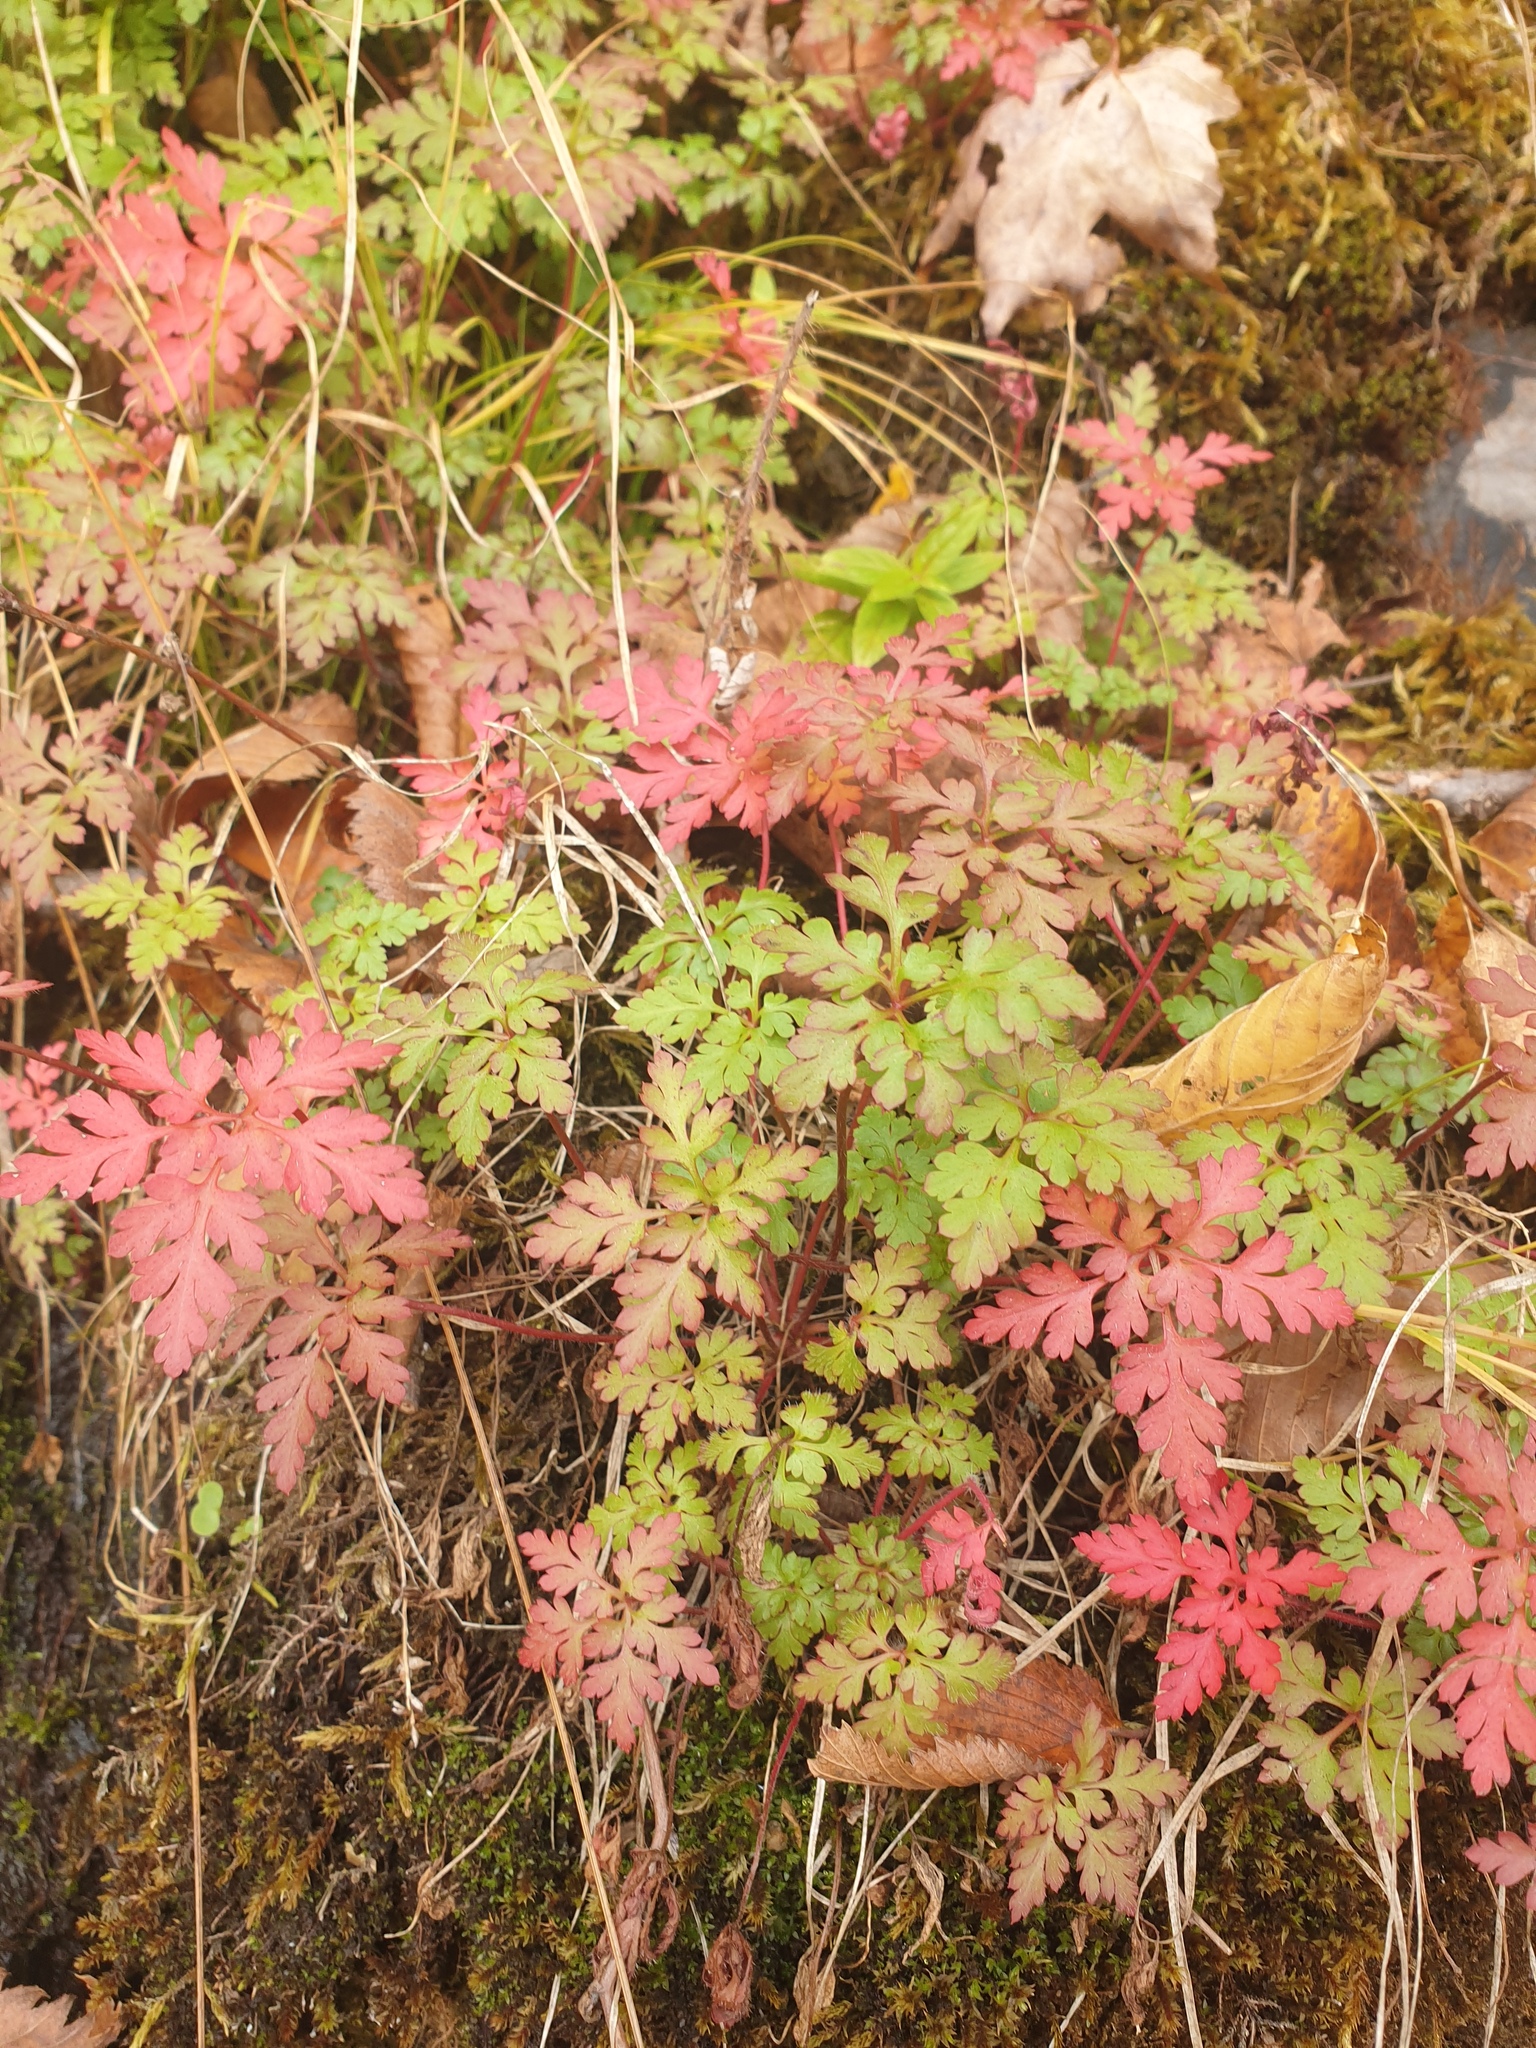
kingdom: Plantae
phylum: Tracheophyta
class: Magnoliopsida
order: Geraniales
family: Geraniaceae
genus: Geranium
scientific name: Geranium robertianum
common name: Herb-robert
